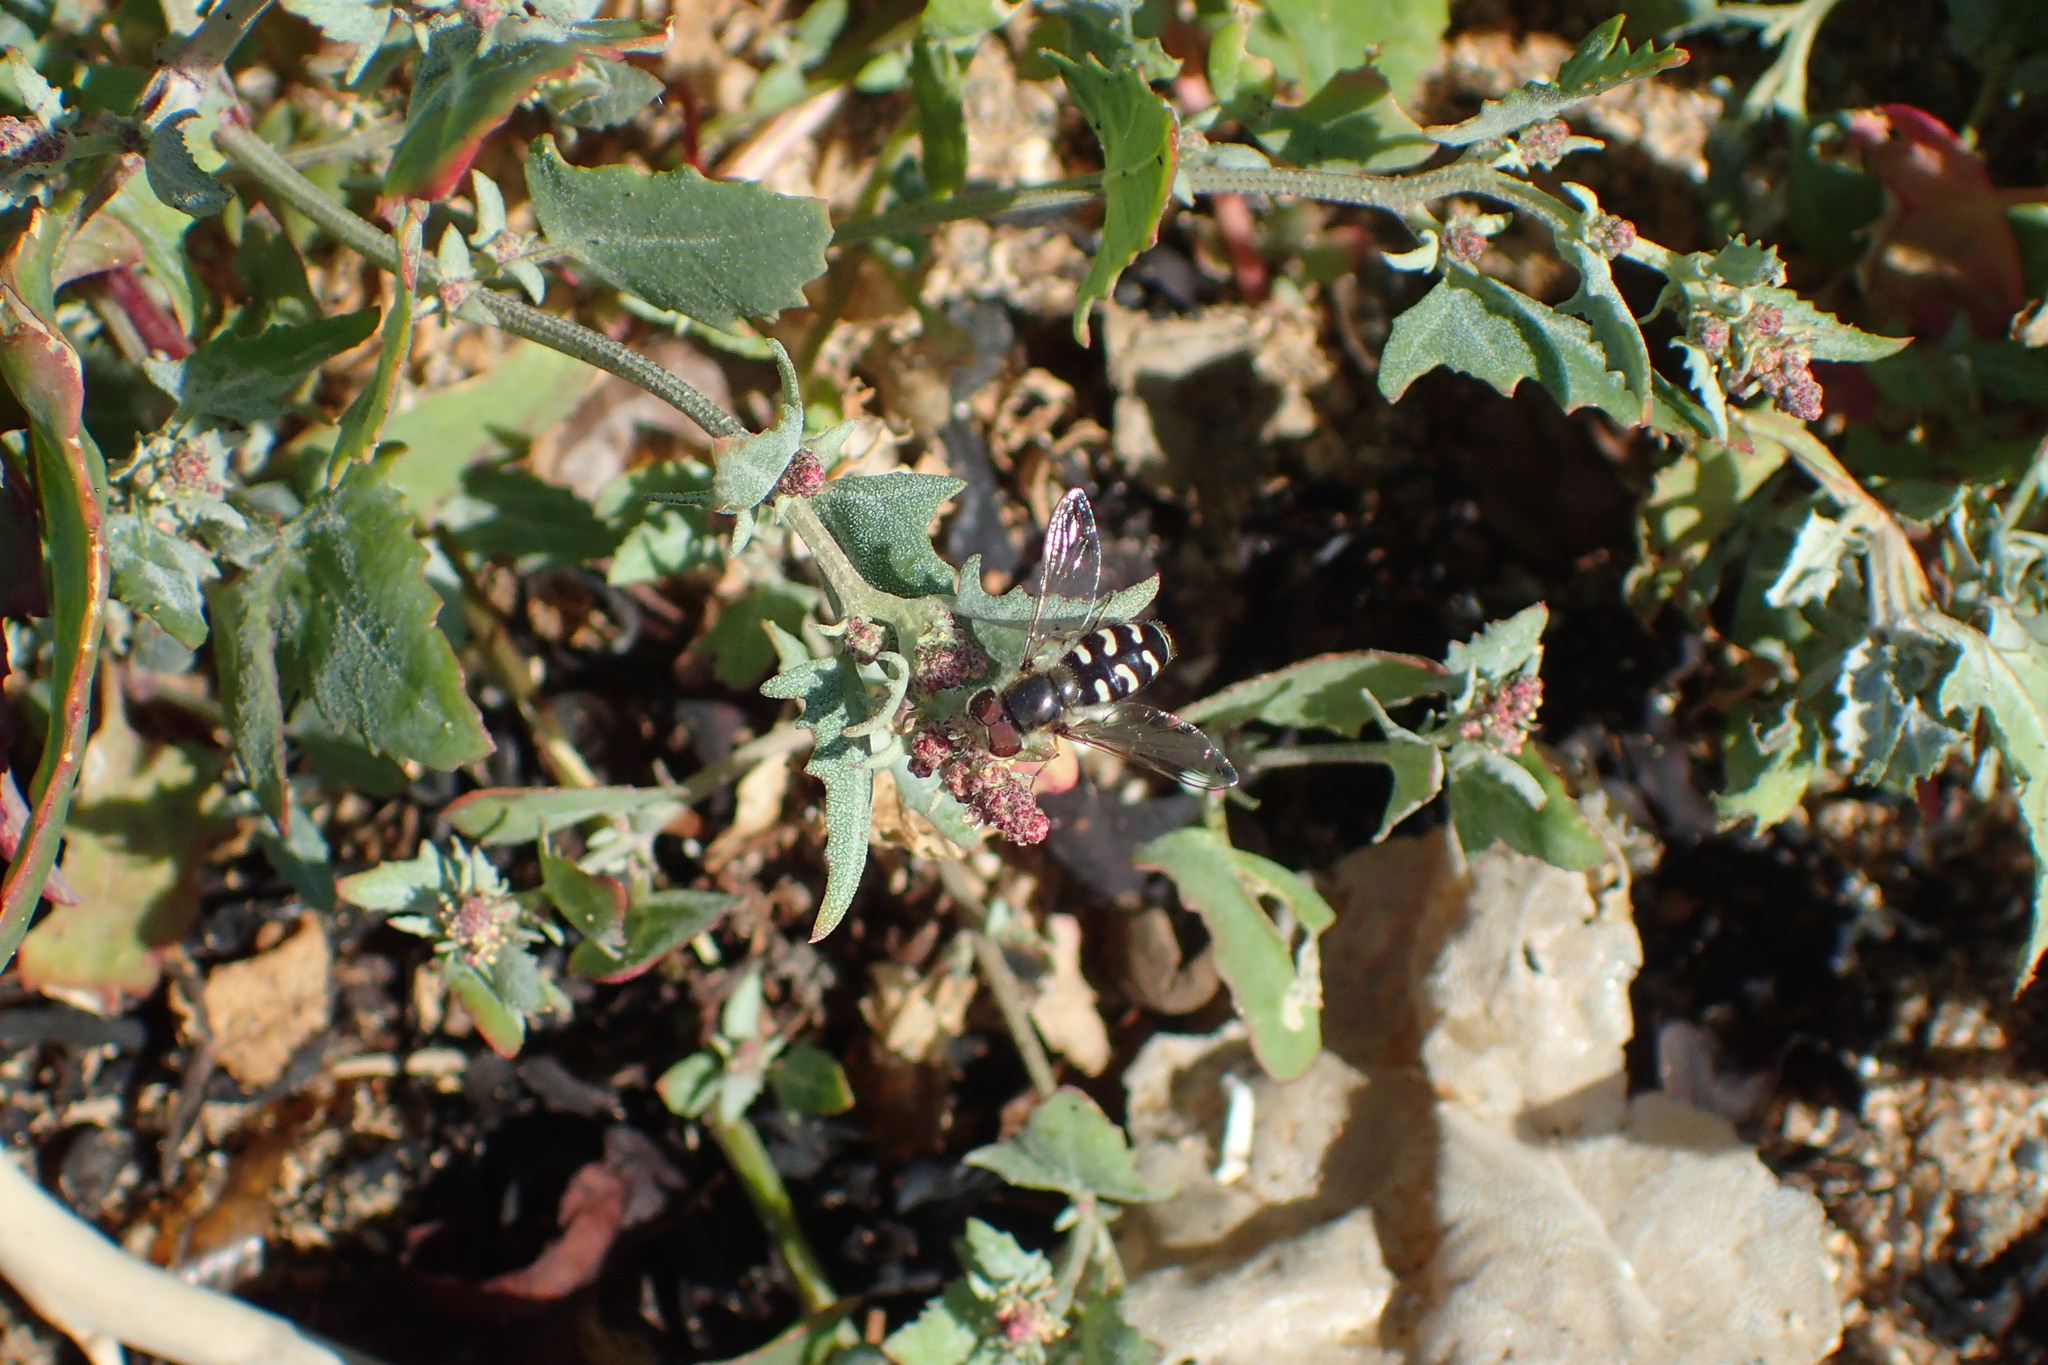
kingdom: Animalia
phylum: Arthropoda
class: Insecta
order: Diptera
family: Syrphidae
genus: Scaeva
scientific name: Scaeva pyrastri
